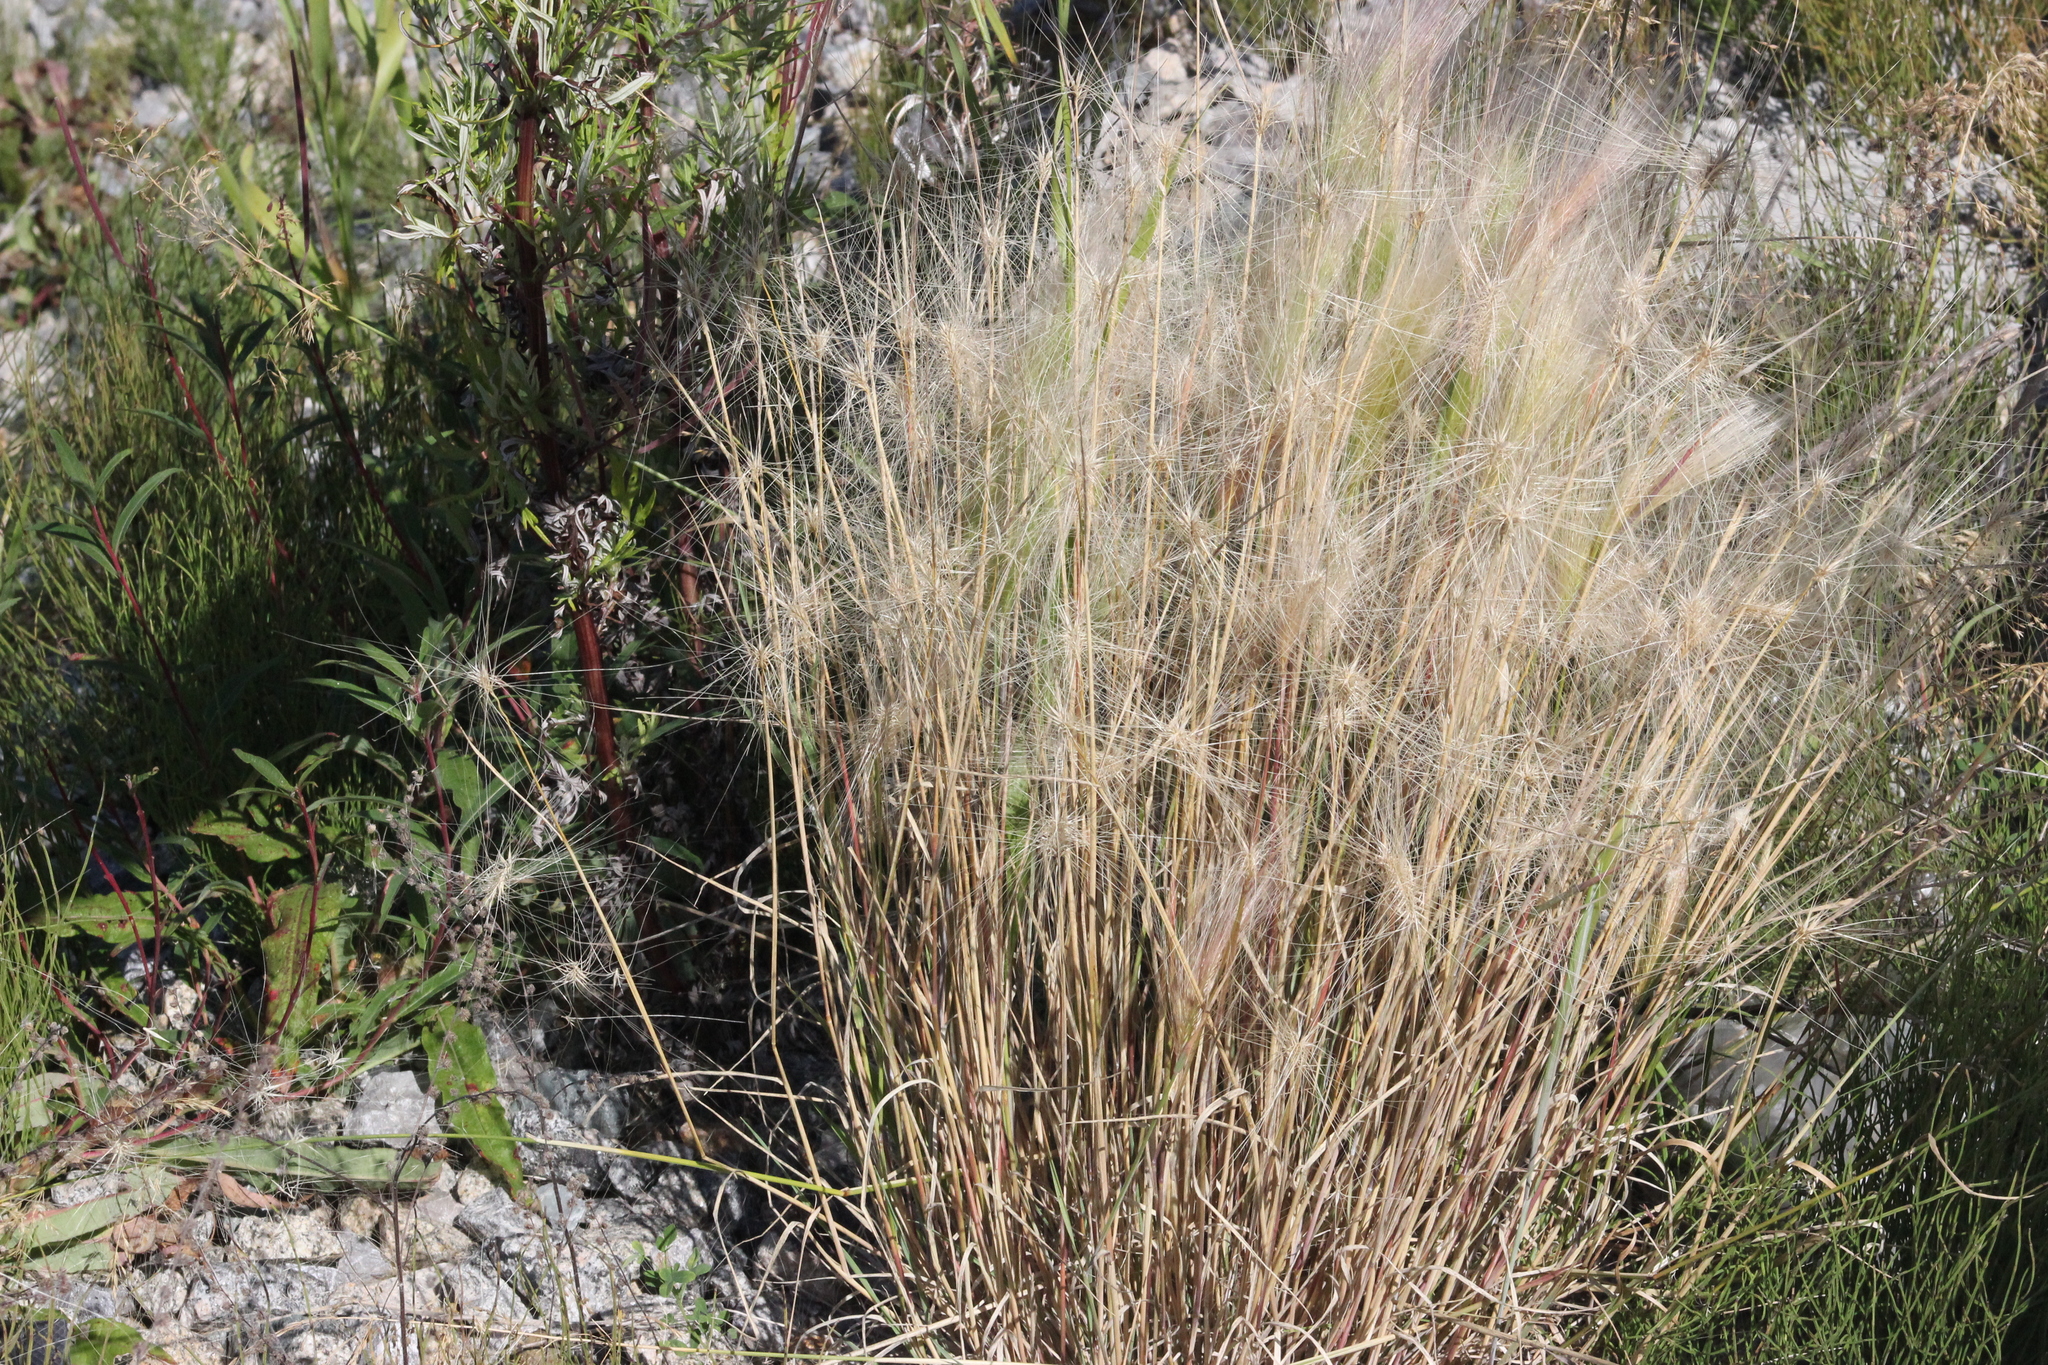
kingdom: Plantae
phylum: Tracheophyta
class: Liliopsida
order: Poales
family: Poaceae
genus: Hordeum
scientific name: Hordeum jubatum
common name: Foxtail barley
